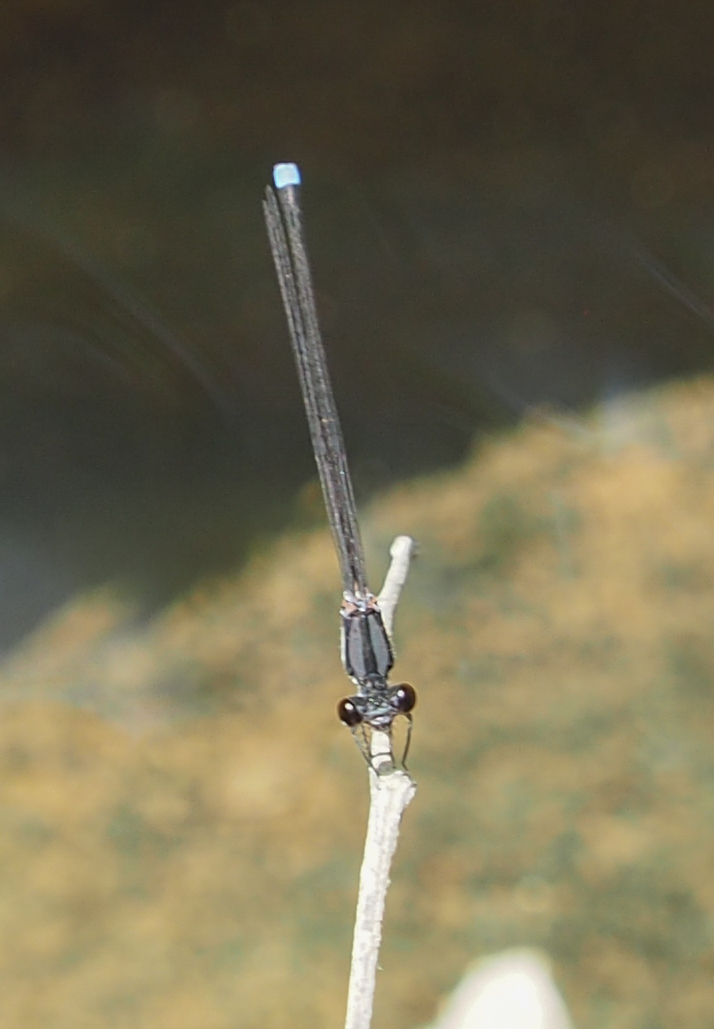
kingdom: Animalia
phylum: Arthropoda
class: Insecta
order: Odonata
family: Coenagrionidae
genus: Argia
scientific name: Argia tibialis
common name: Blue-tipped dancer
